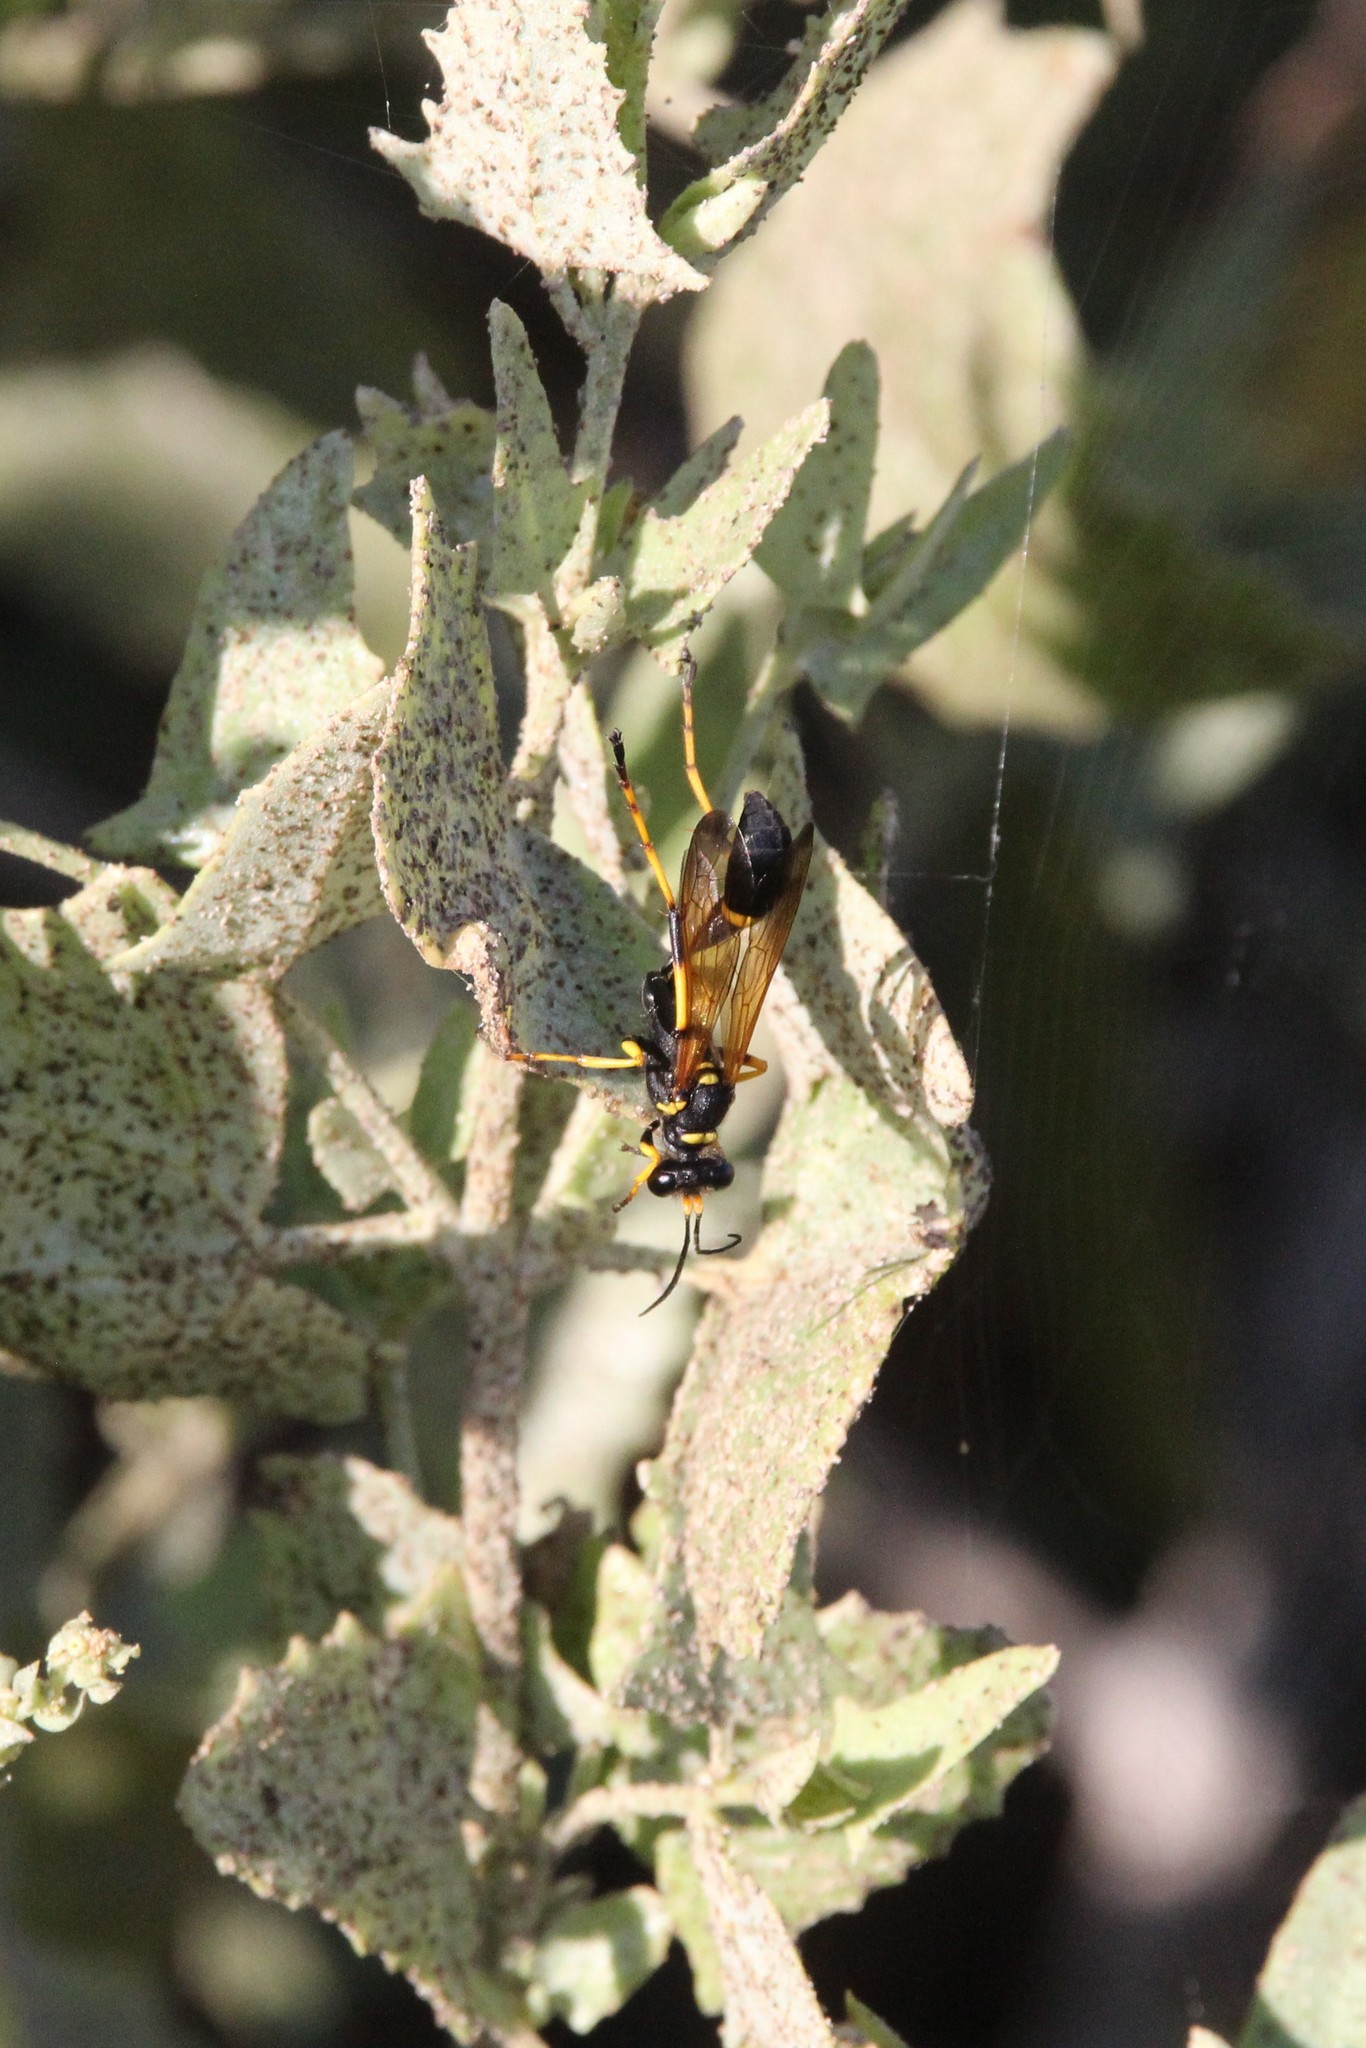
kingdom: Animalia
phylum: Arthropoda
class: Insecta
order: Hymenoptera
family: Sphecidae
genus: Sceliphron
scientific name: Sceliphron caementarium
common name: Mud dauber
